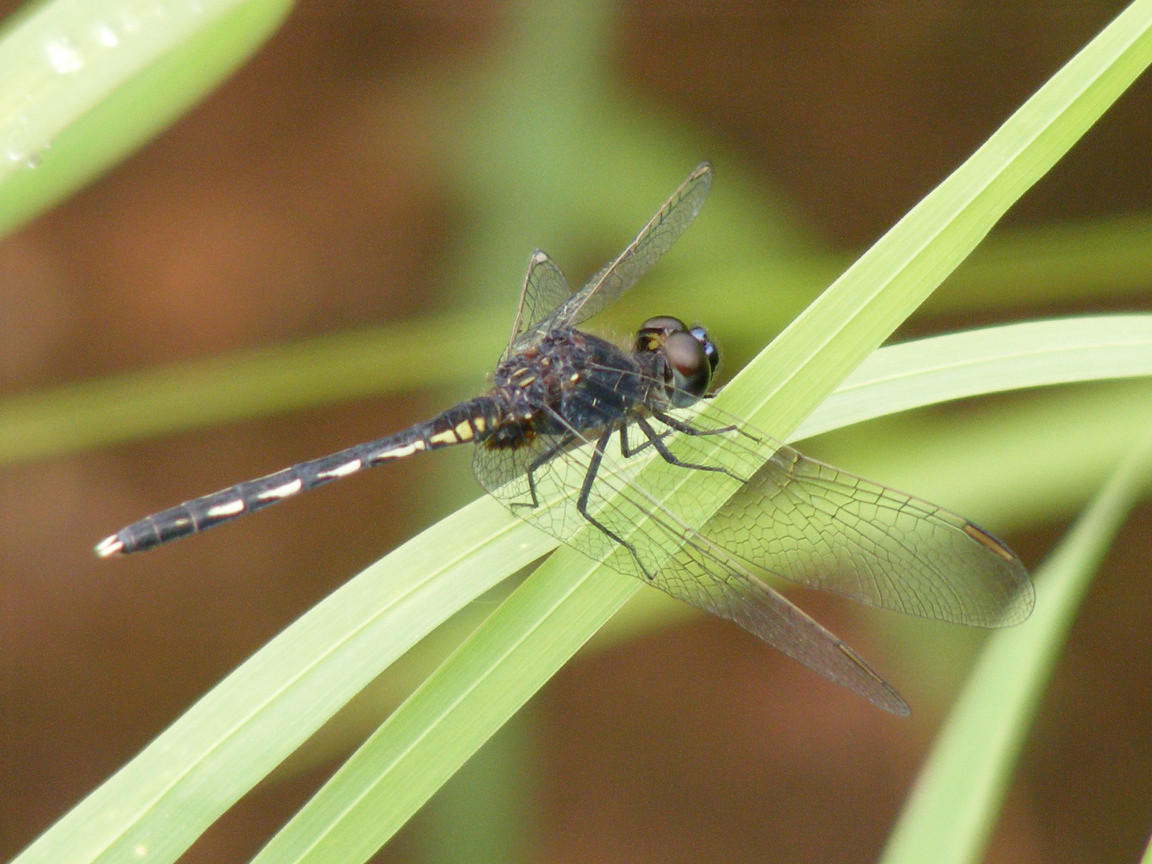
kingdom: Animalia
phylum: Arthropoda
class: Insecta
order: Odonata
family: Libellulidae
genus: Diplacodes
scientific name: Diplacodes lefebvrii
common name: Black percher
